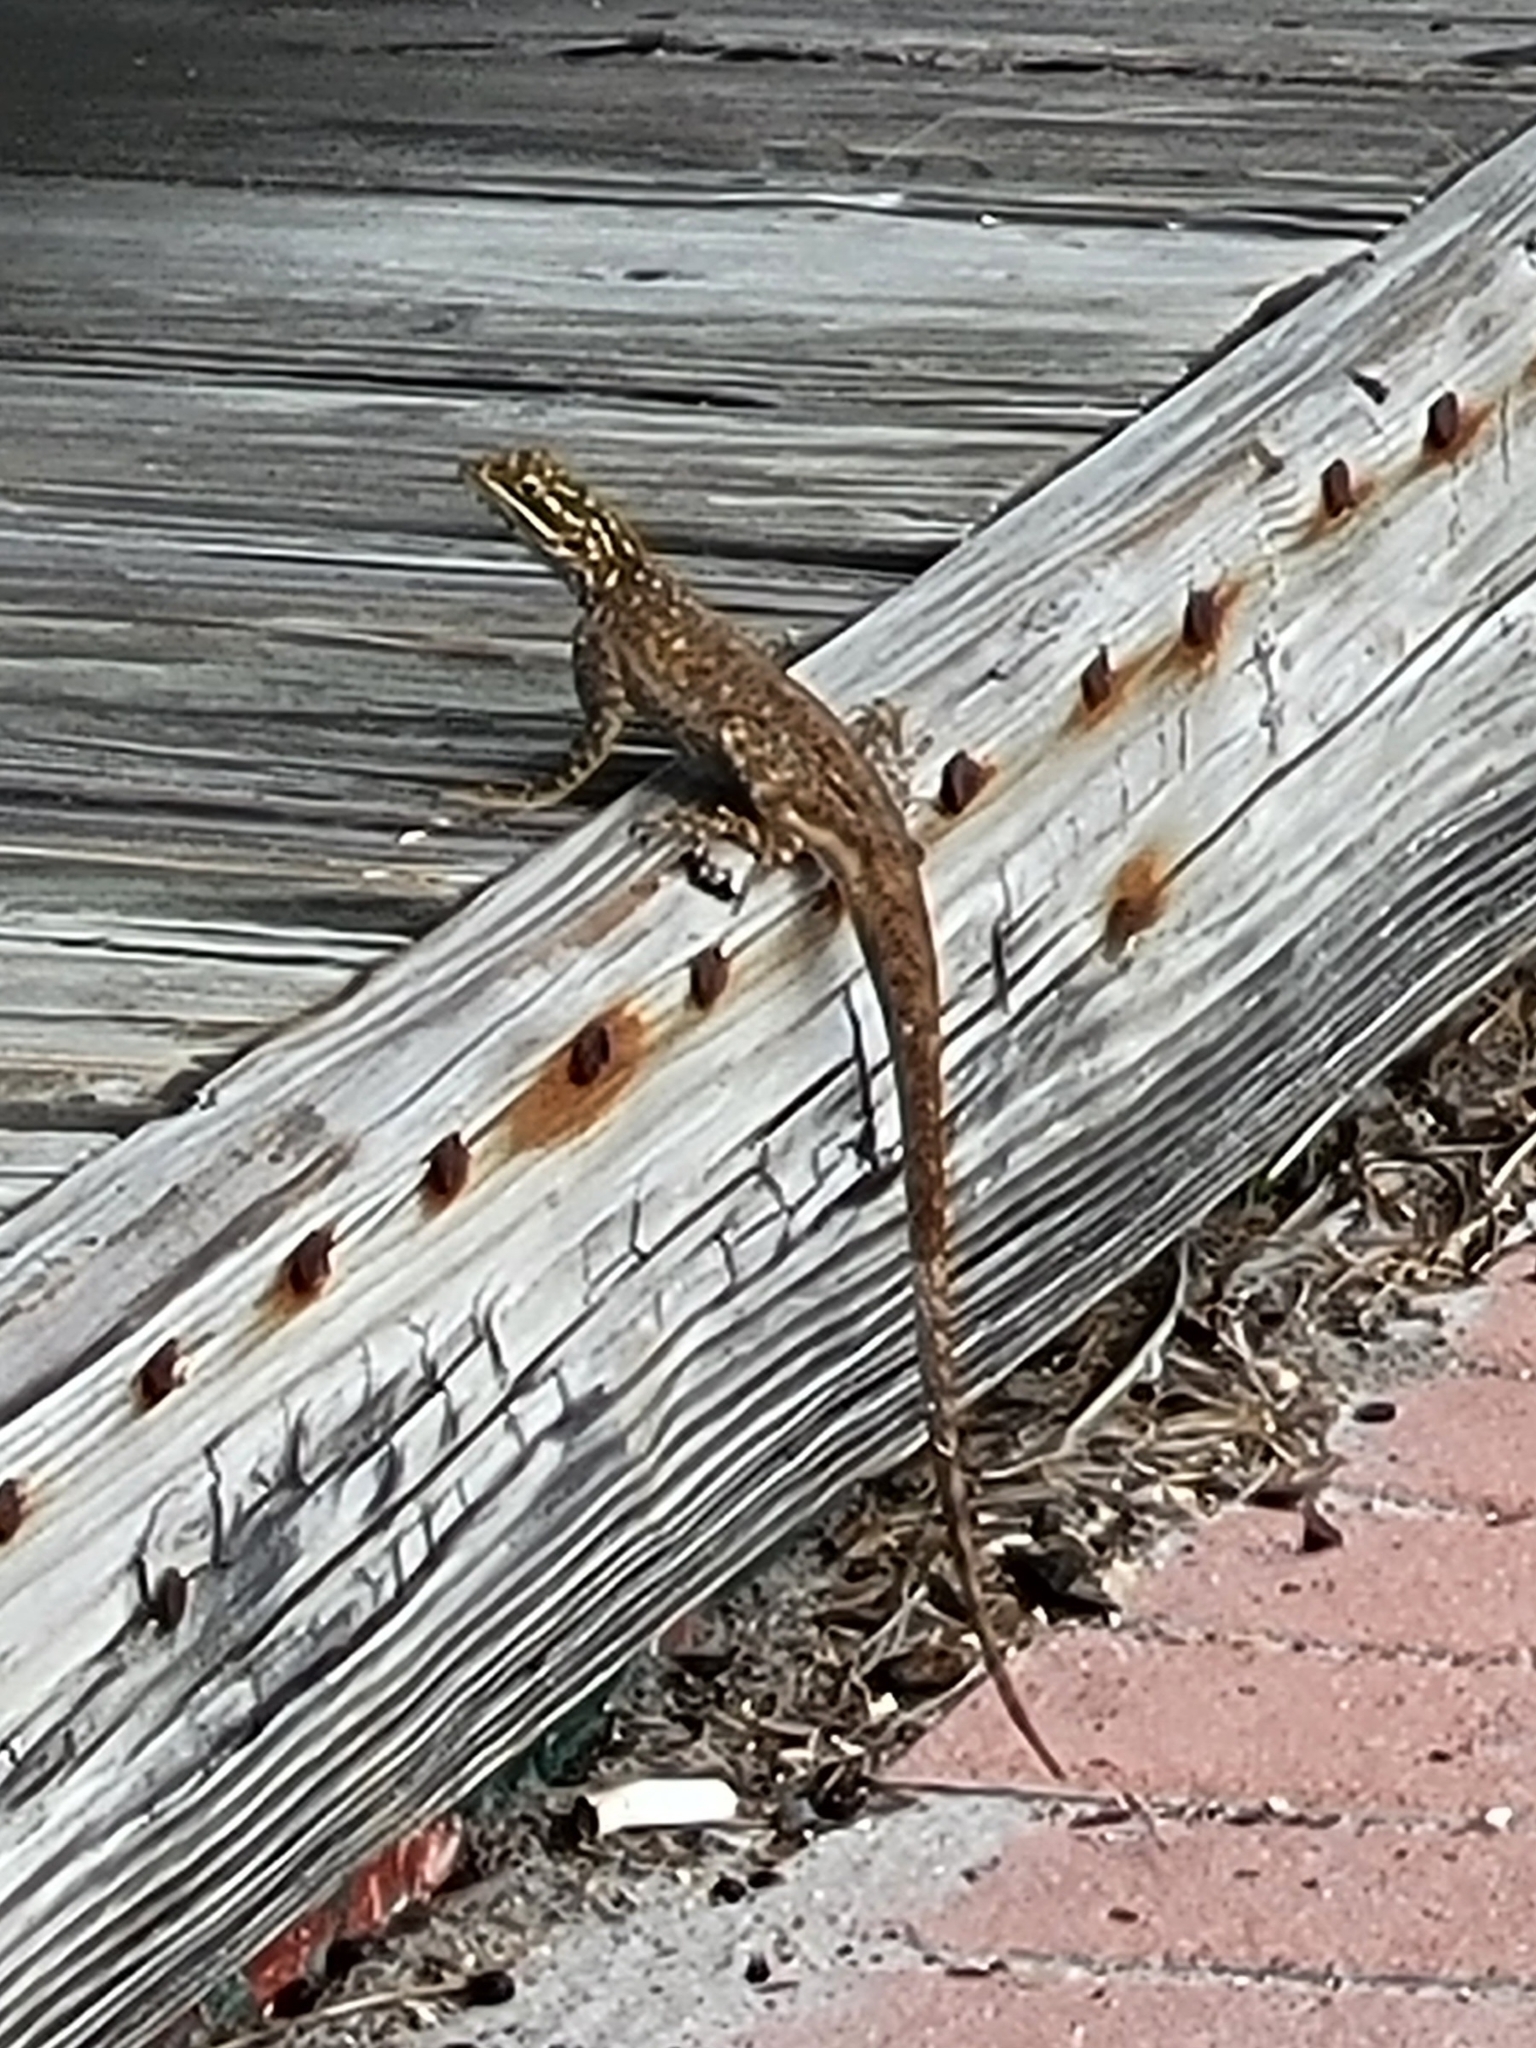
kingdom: Animalia
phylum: Chordata
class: Squamata
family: Agamidae
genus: Agama
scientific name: Agama picticauda
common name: Red-headed agama
